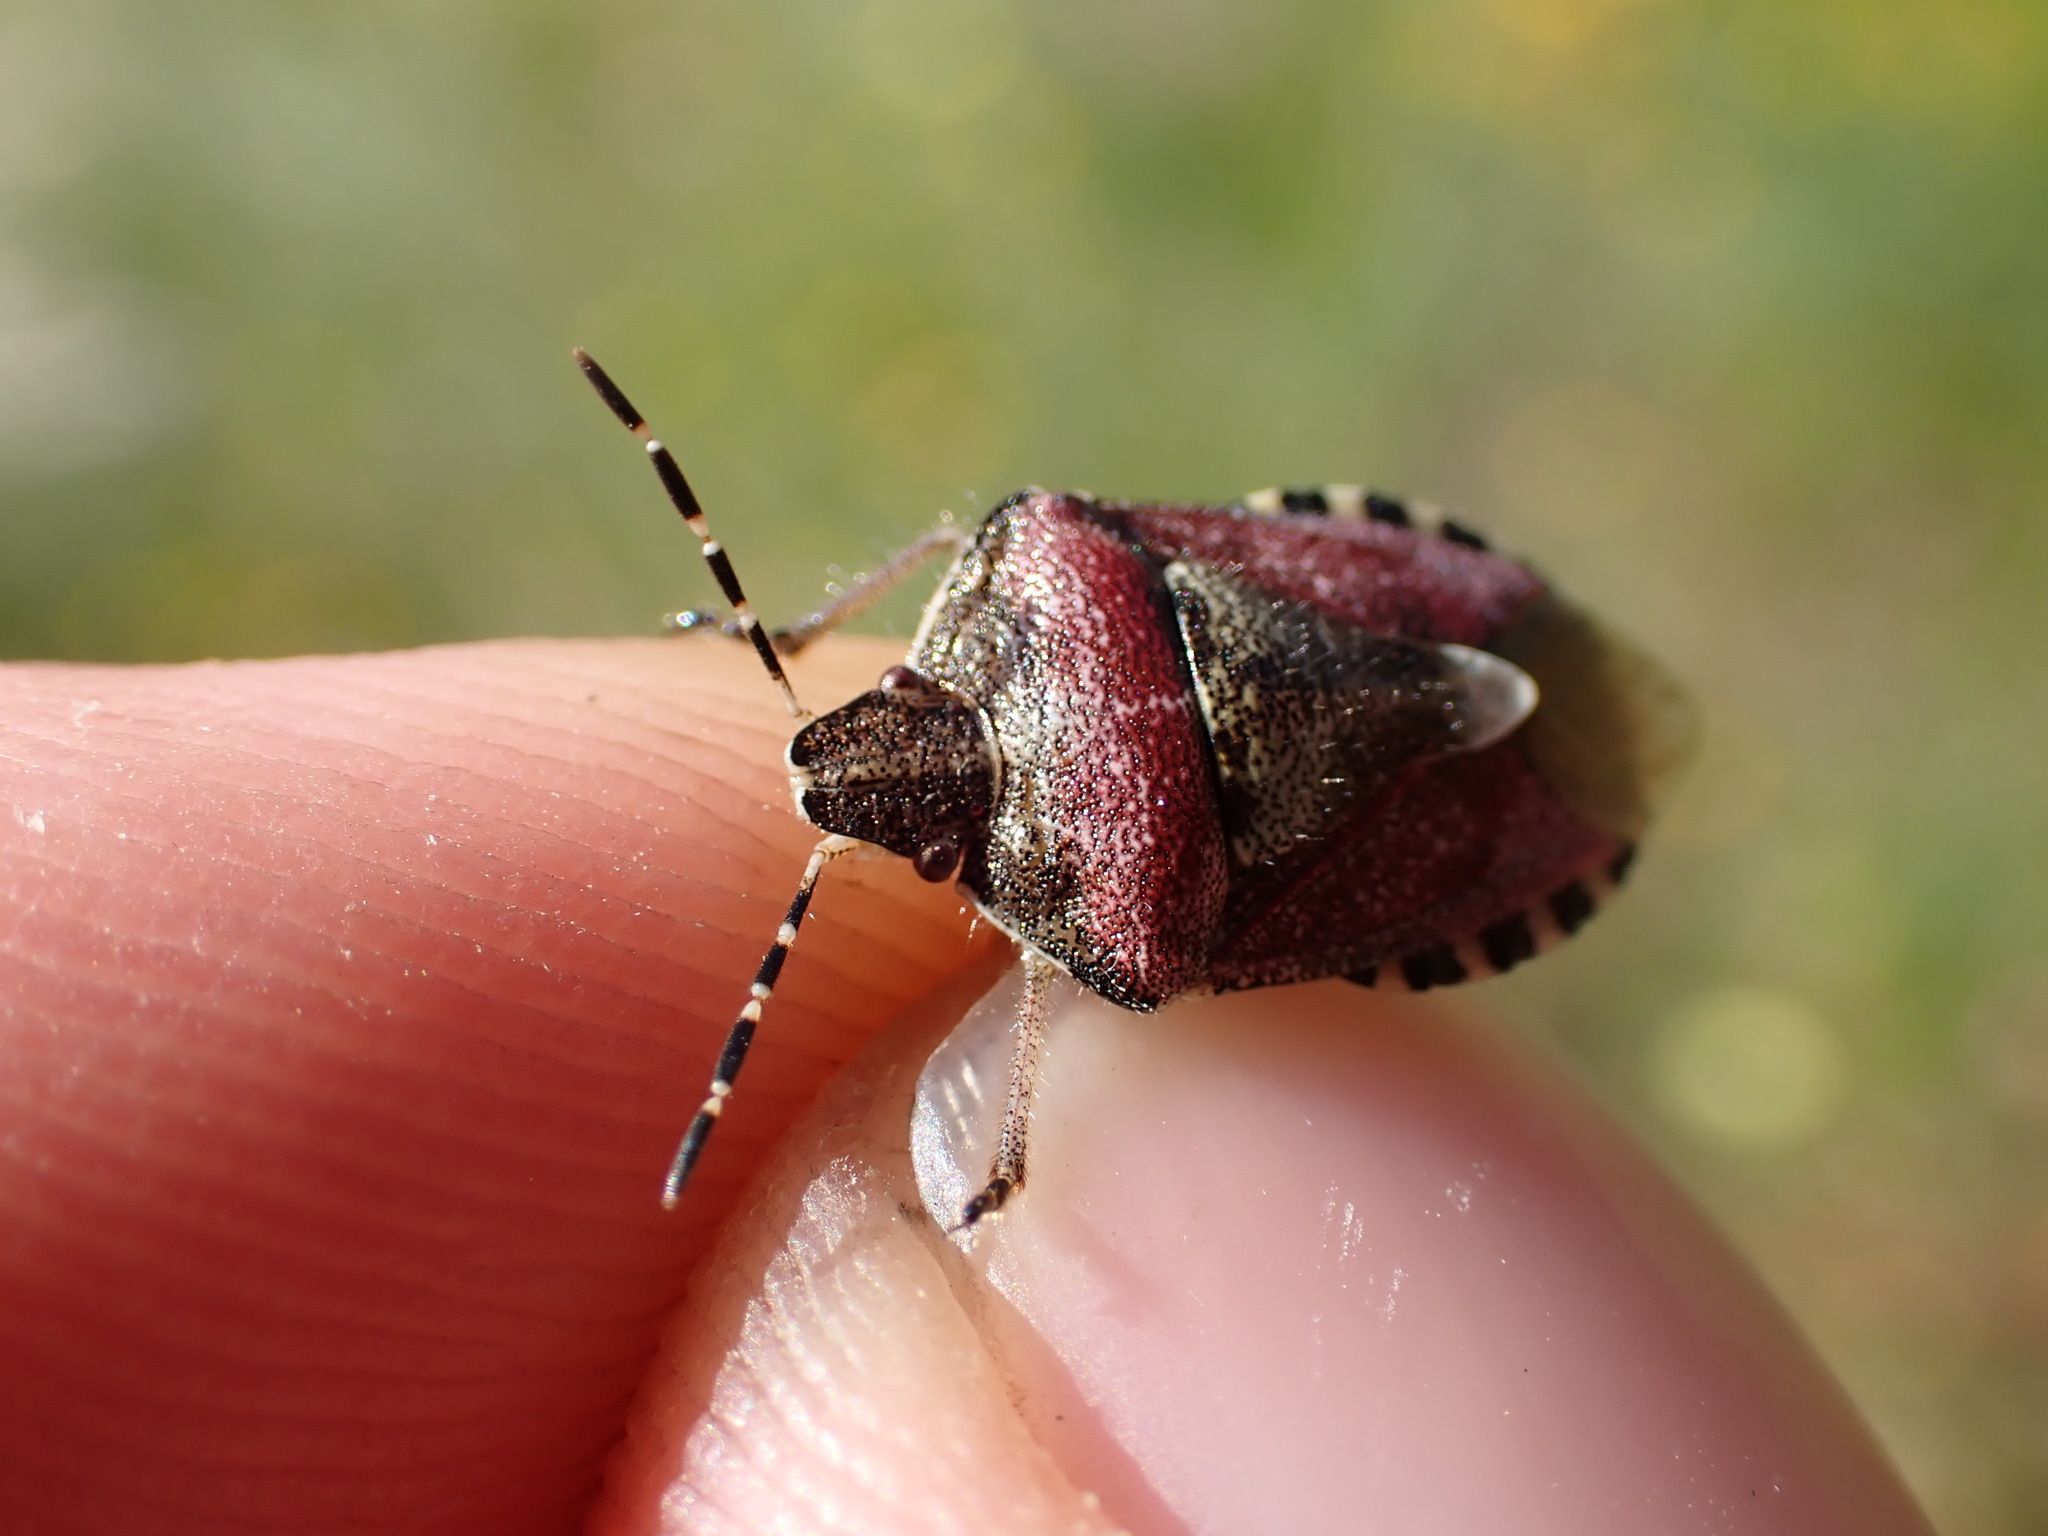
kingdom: Animalia
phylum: Arthropoda
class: Insecta
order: Hemiptera
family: Pentatomidae
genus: Dolycoris
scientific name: Dolycoris baccarum
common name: Sloe bug
